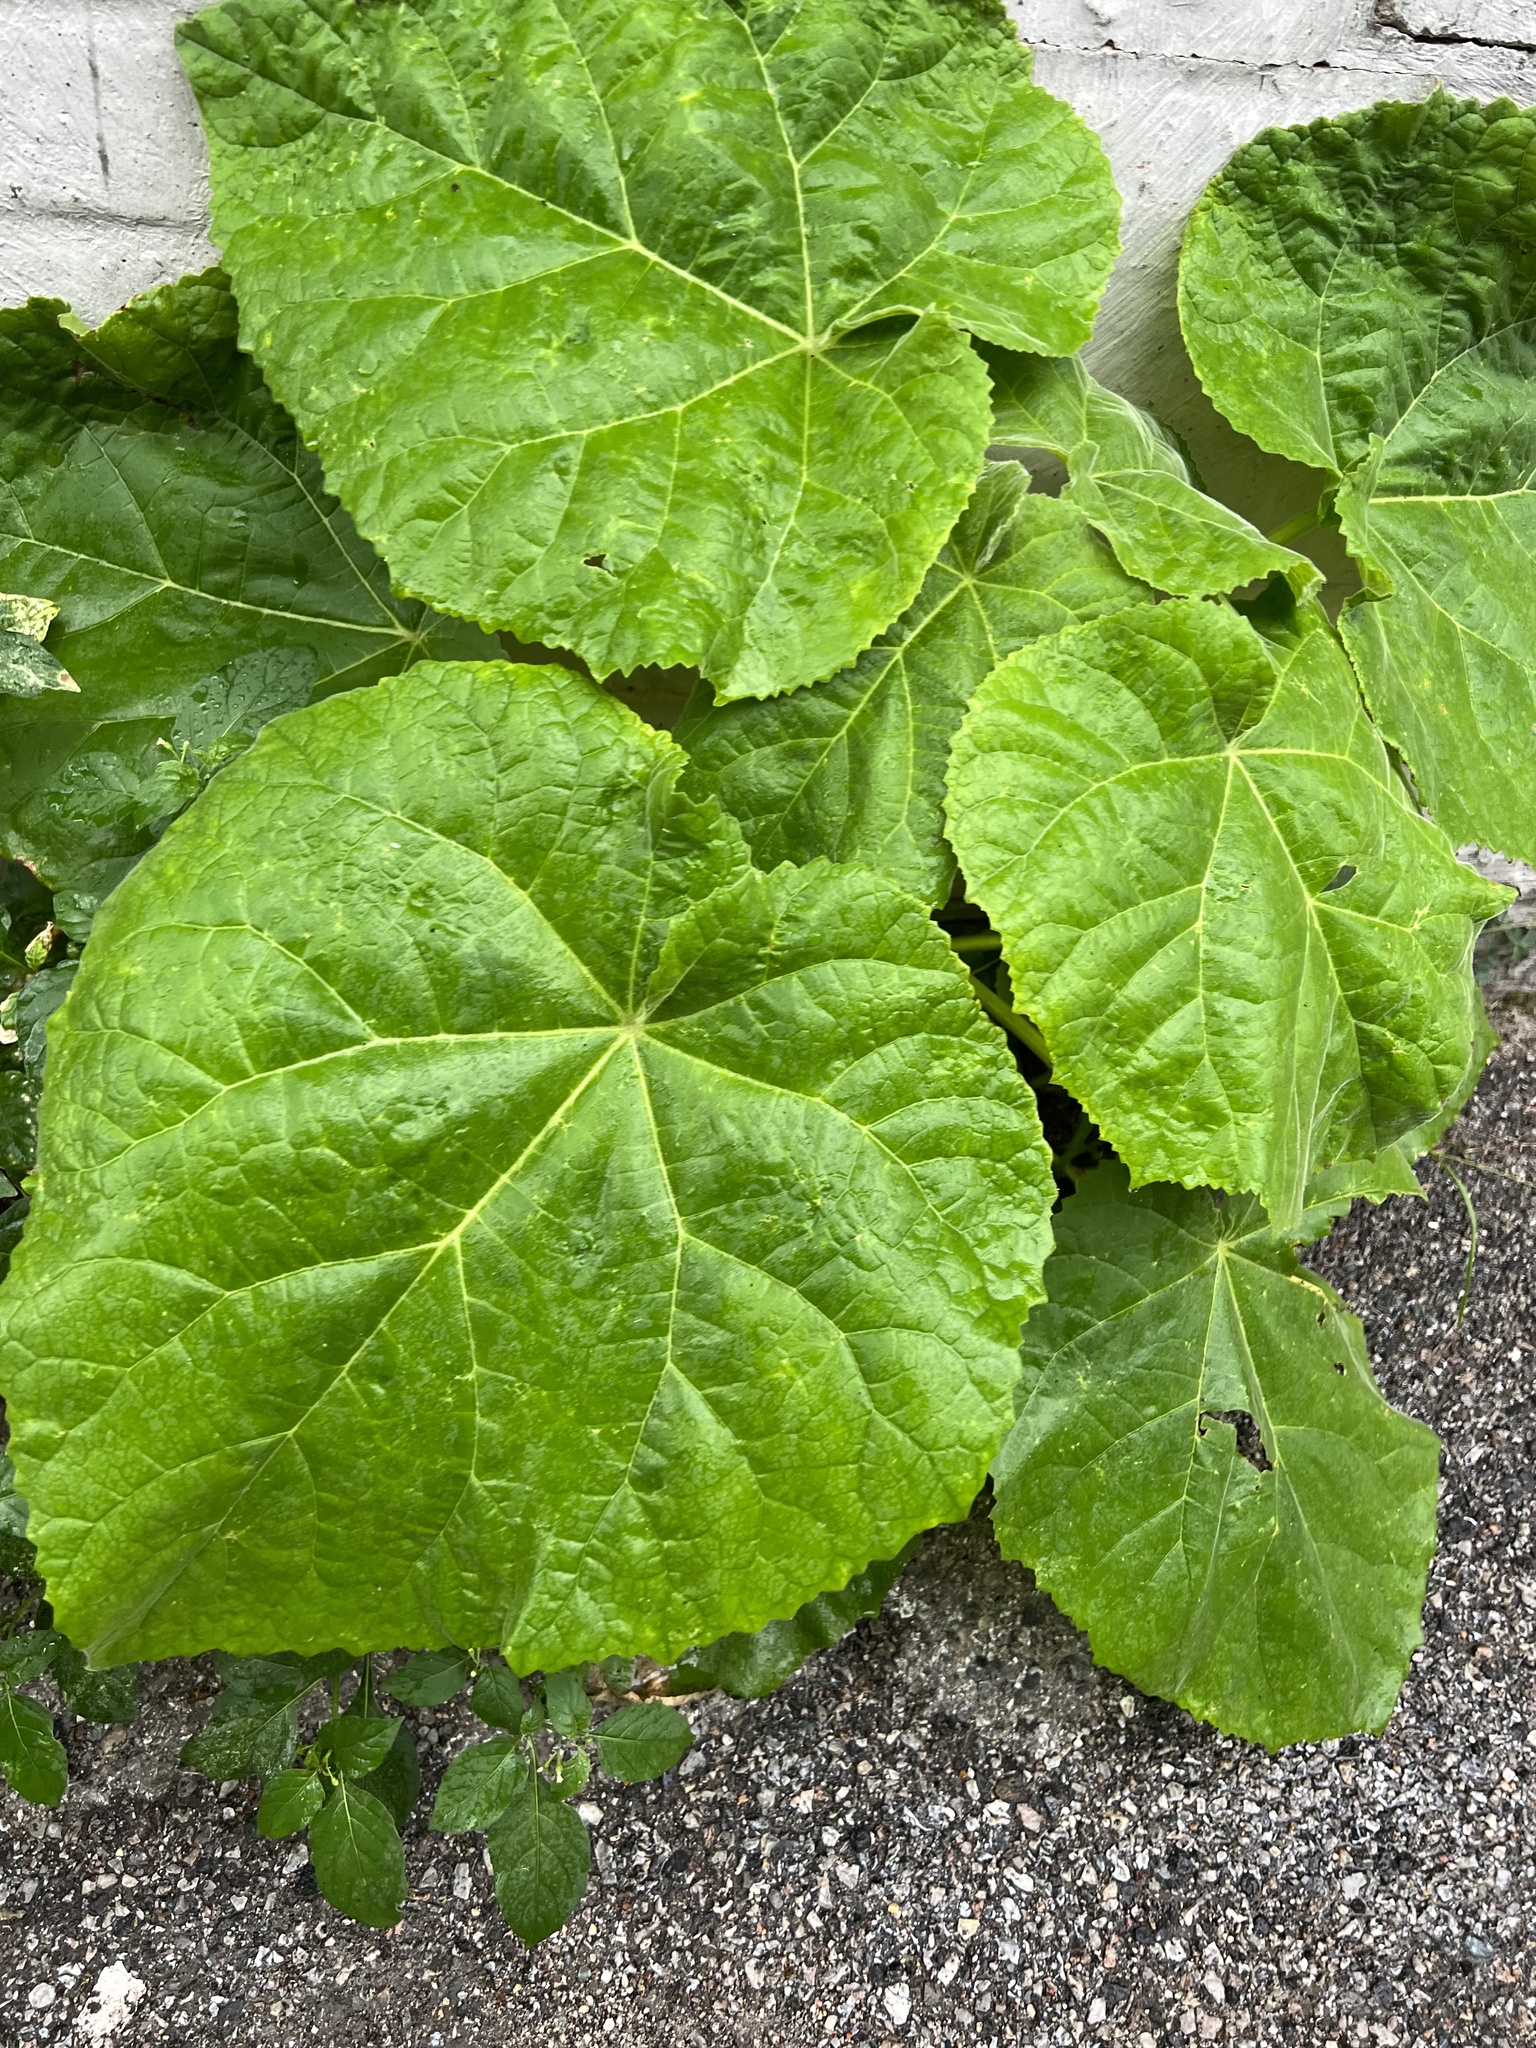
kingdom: Plantae
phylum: Tracheophyta
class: Magnoliopsida
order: Lamiales
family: Paulowniaceae
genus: Paulownia
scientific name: Paulownia tomentosa
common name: Foxglove-tree
